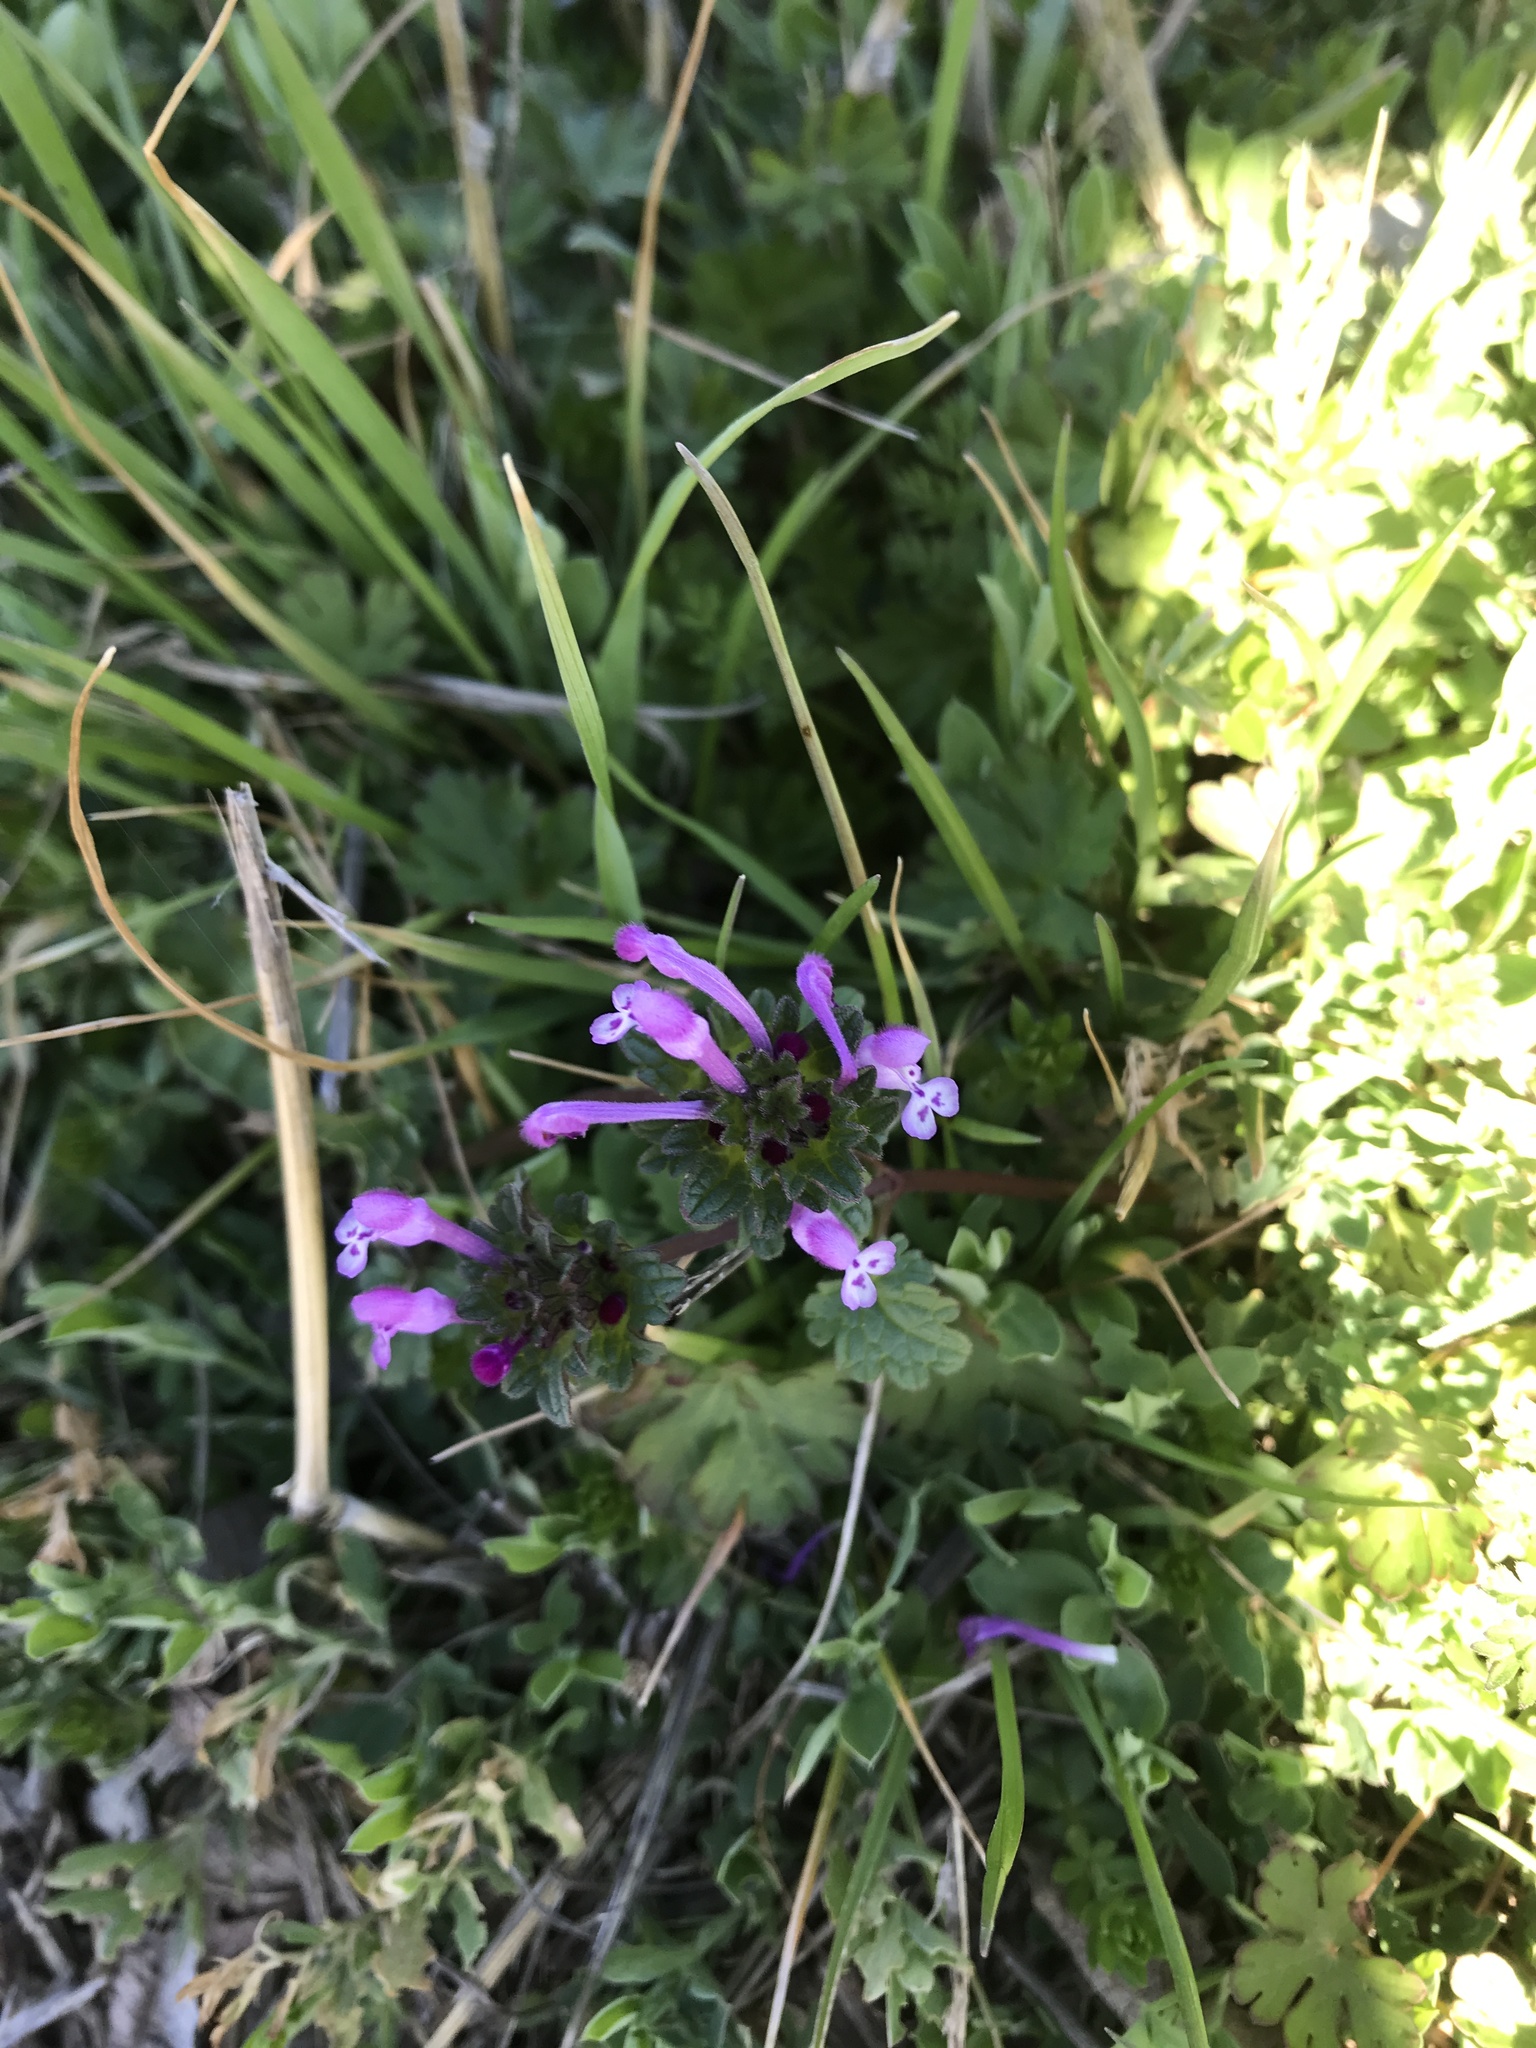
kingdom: Plantae
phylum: Tracheophyta
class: Magnoliopsida
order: Lamiales
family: Lamiaceae
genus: Lamium
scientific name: Lamium amplexicaule
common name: Henbit dead-nettle
